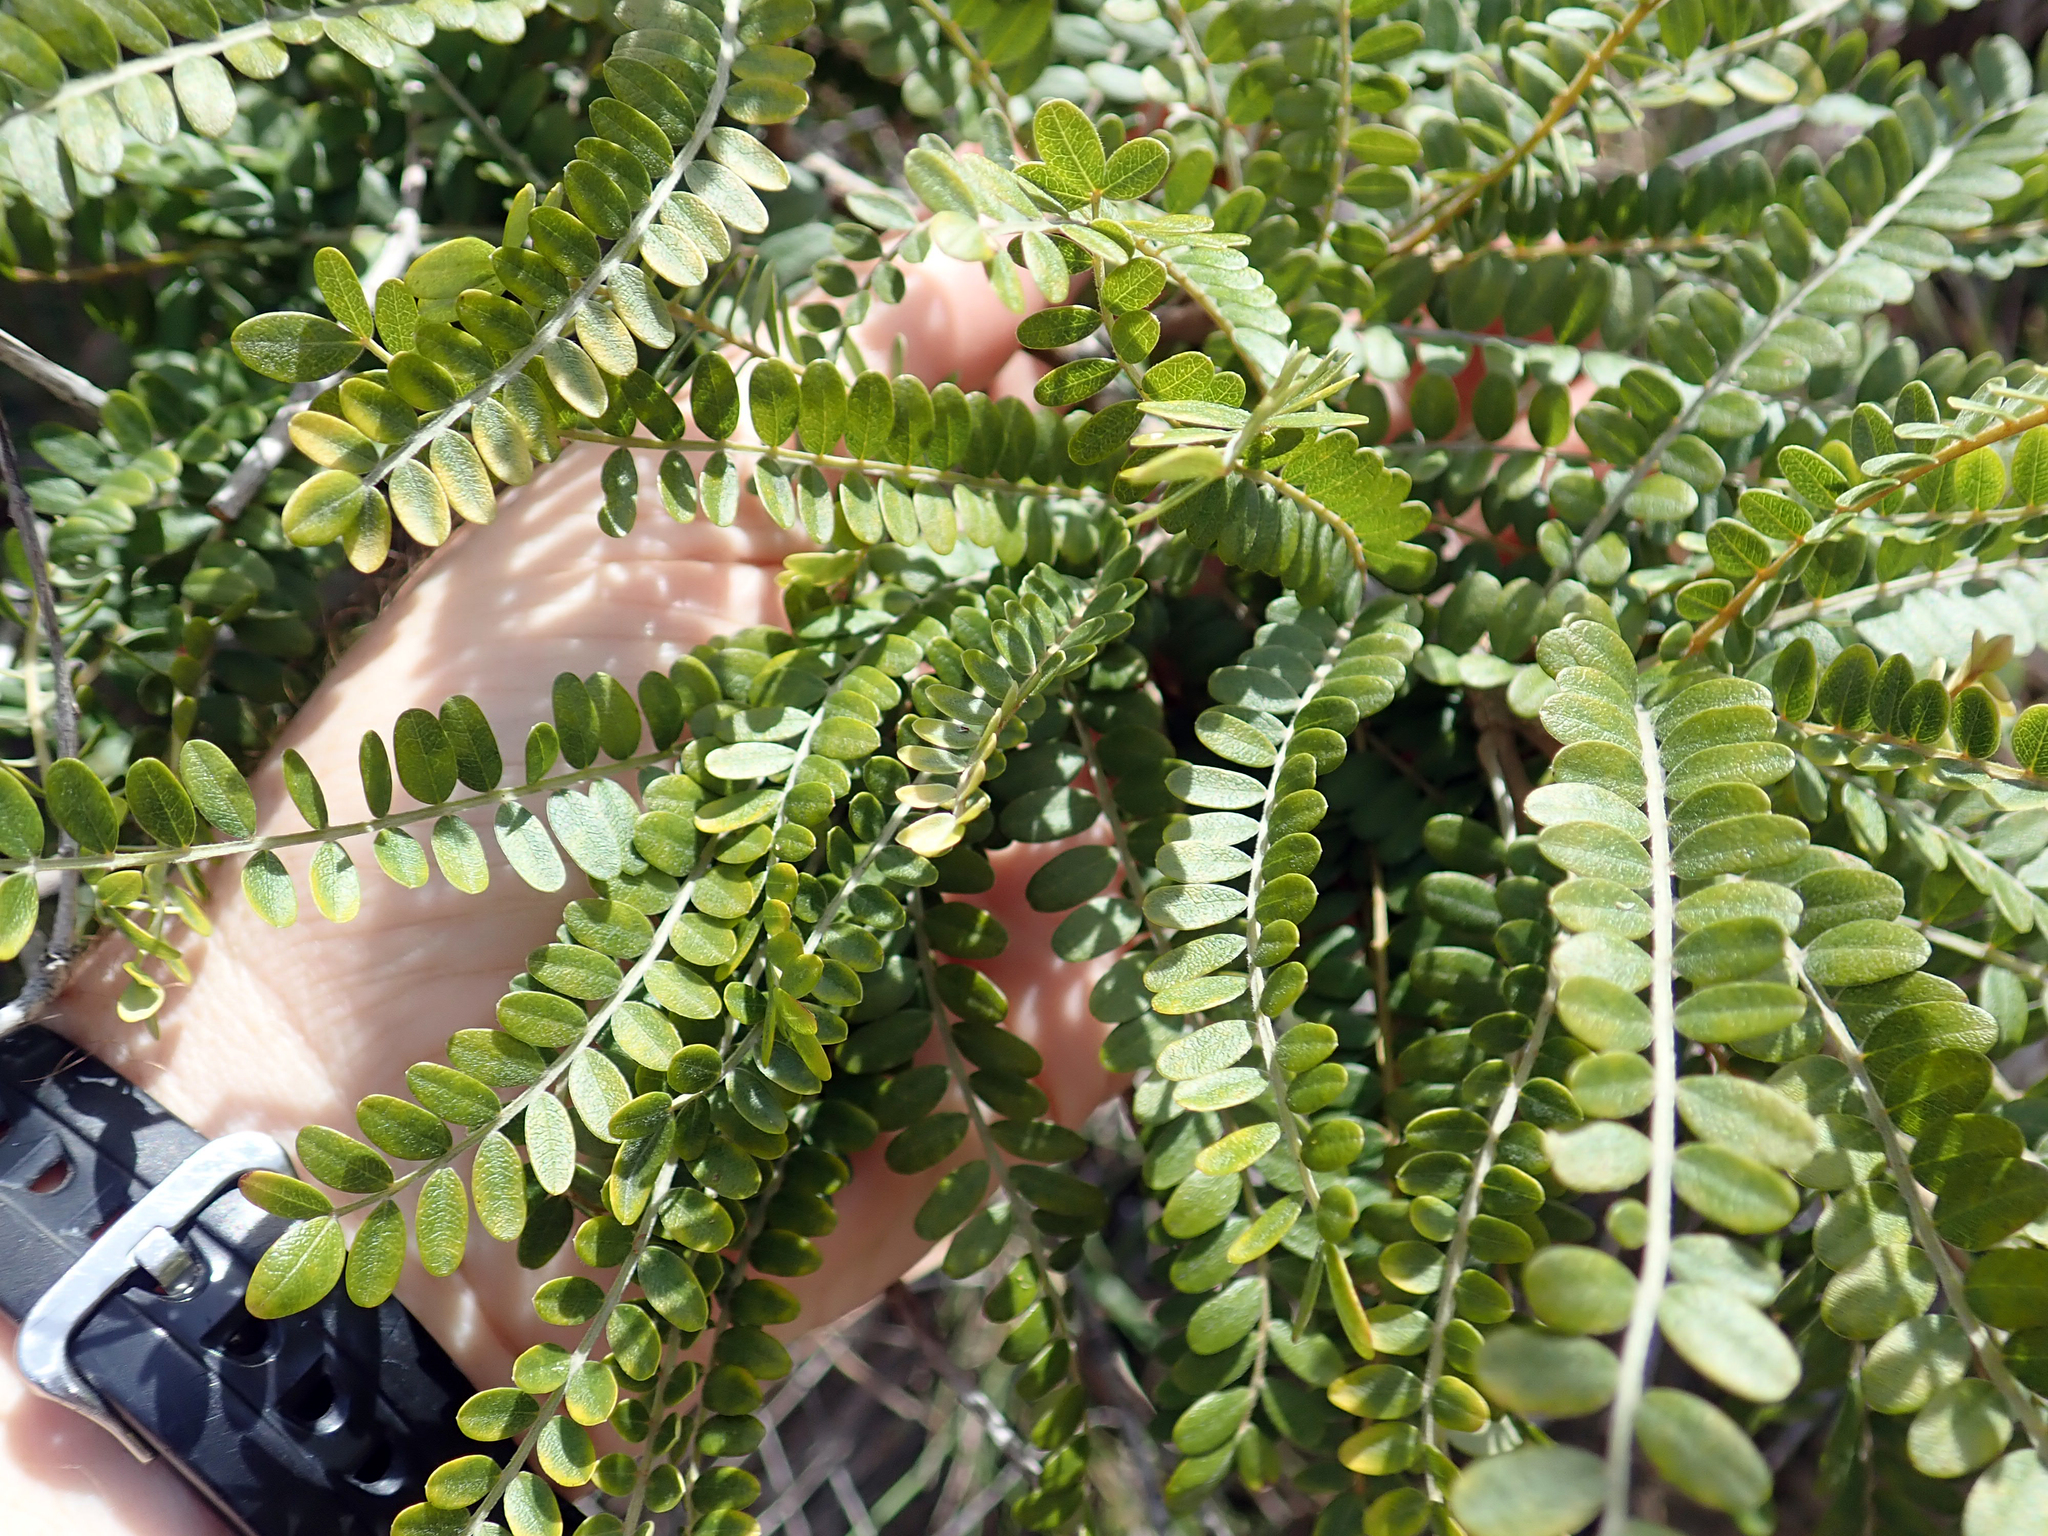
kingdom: Plantae
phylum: Tracheophyta
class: Magnoliopsida
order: Fabales
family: Fabaceae
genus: Sophora
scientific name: Sophora chathamica
